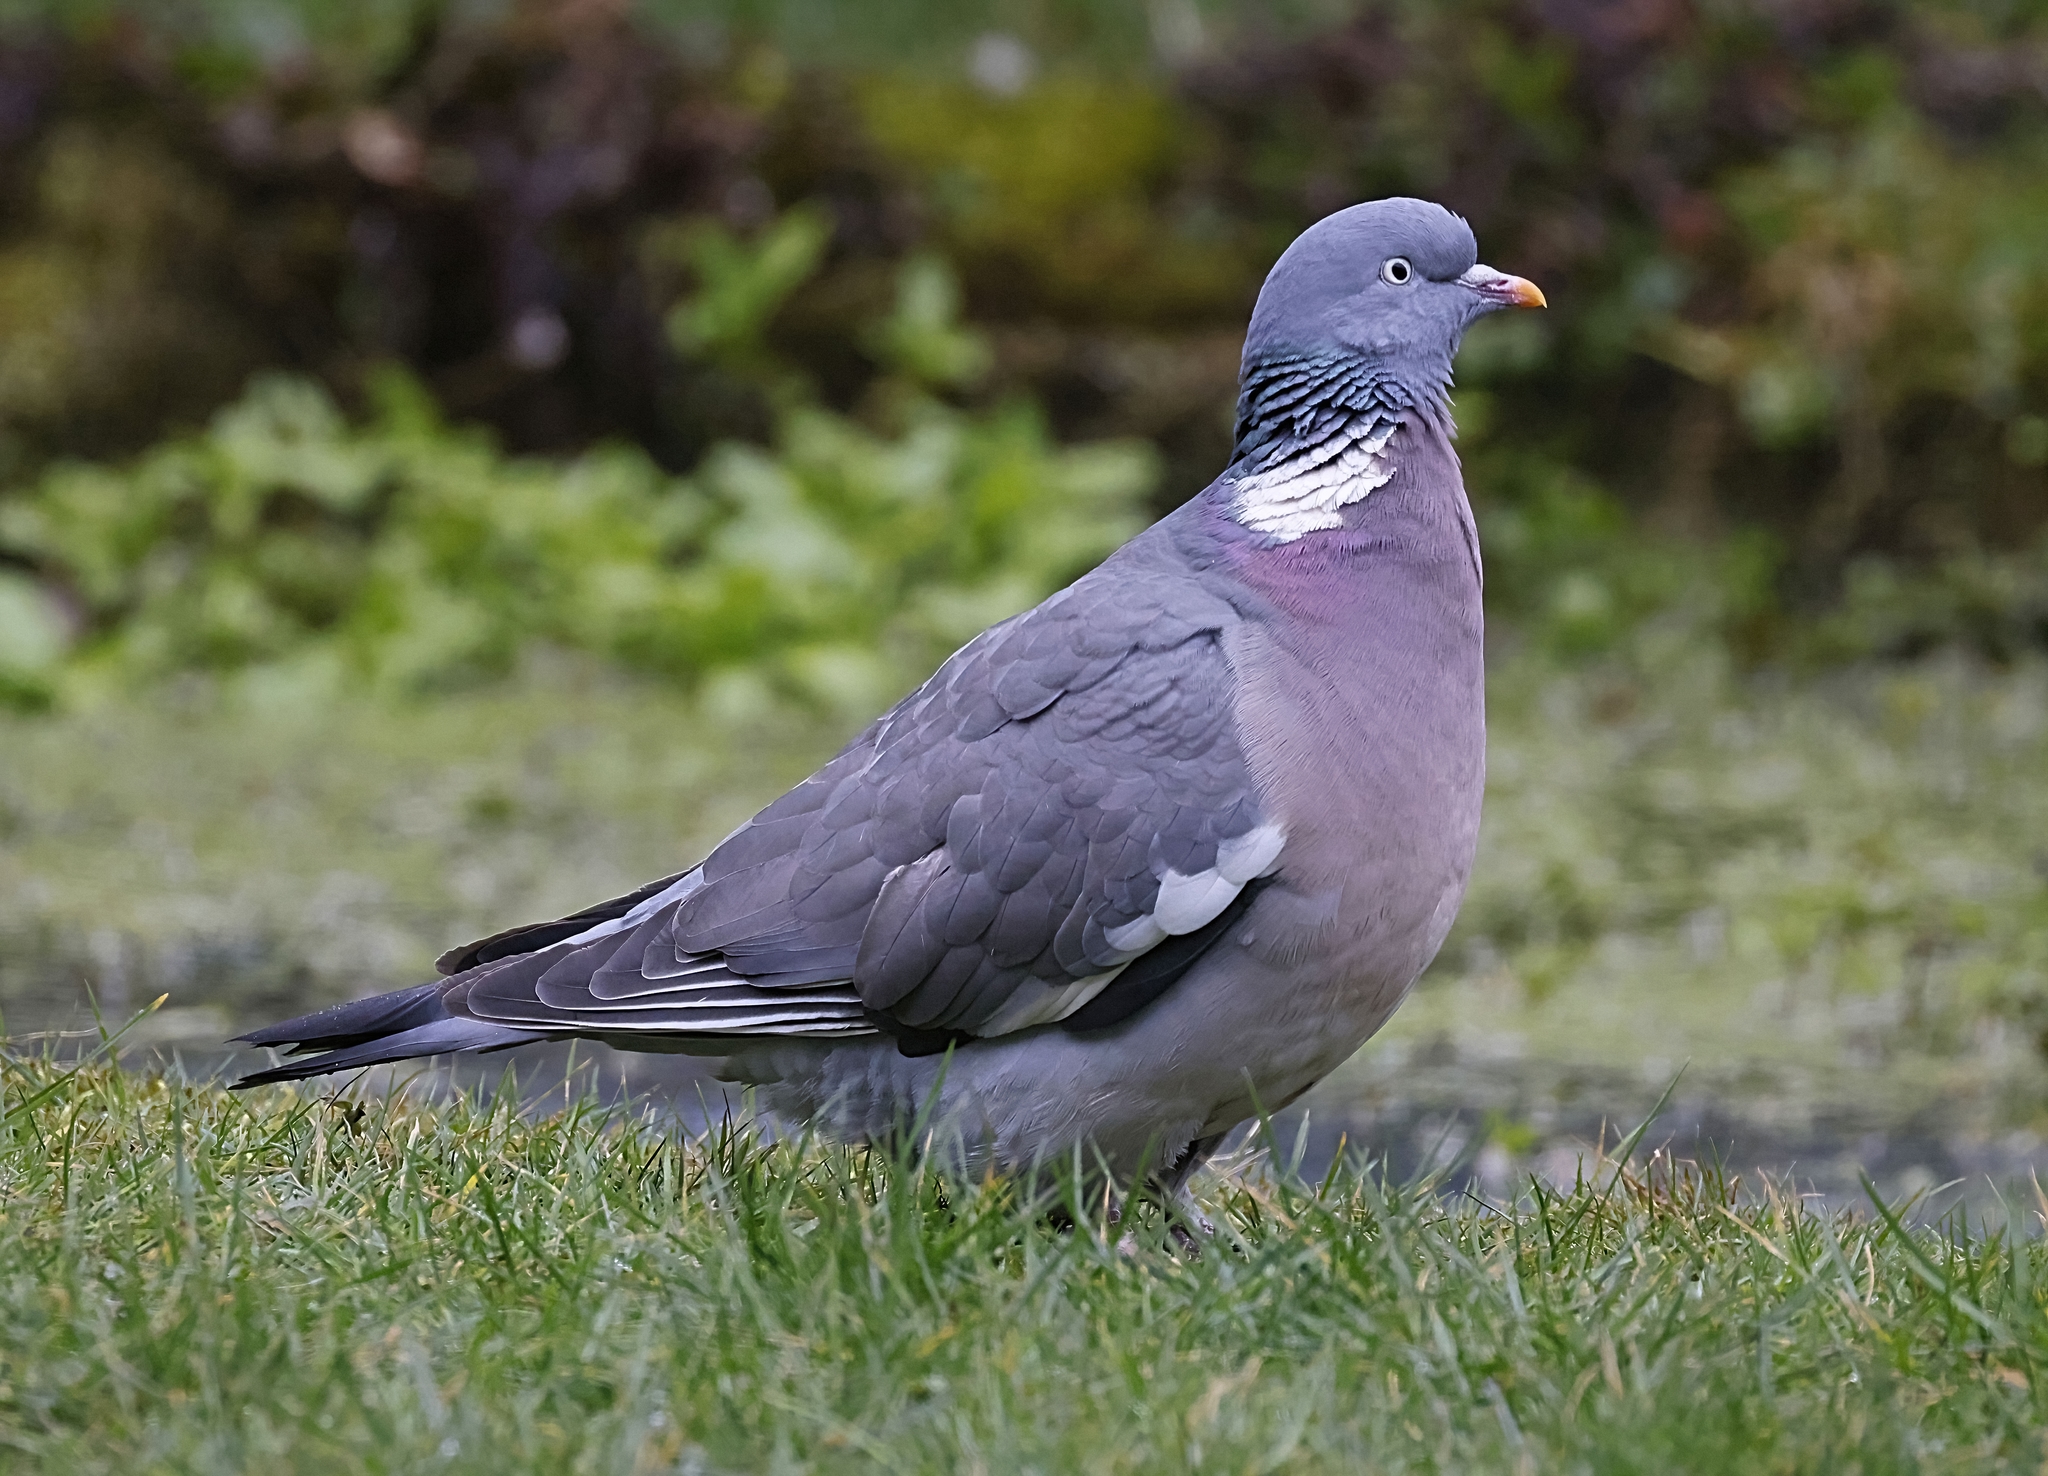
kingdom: Animalia
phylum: Chordata
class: Aves
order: Columbiformes
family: Columbidae
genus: Columba
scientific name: Columba palumbus
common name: Common wood pigeon
